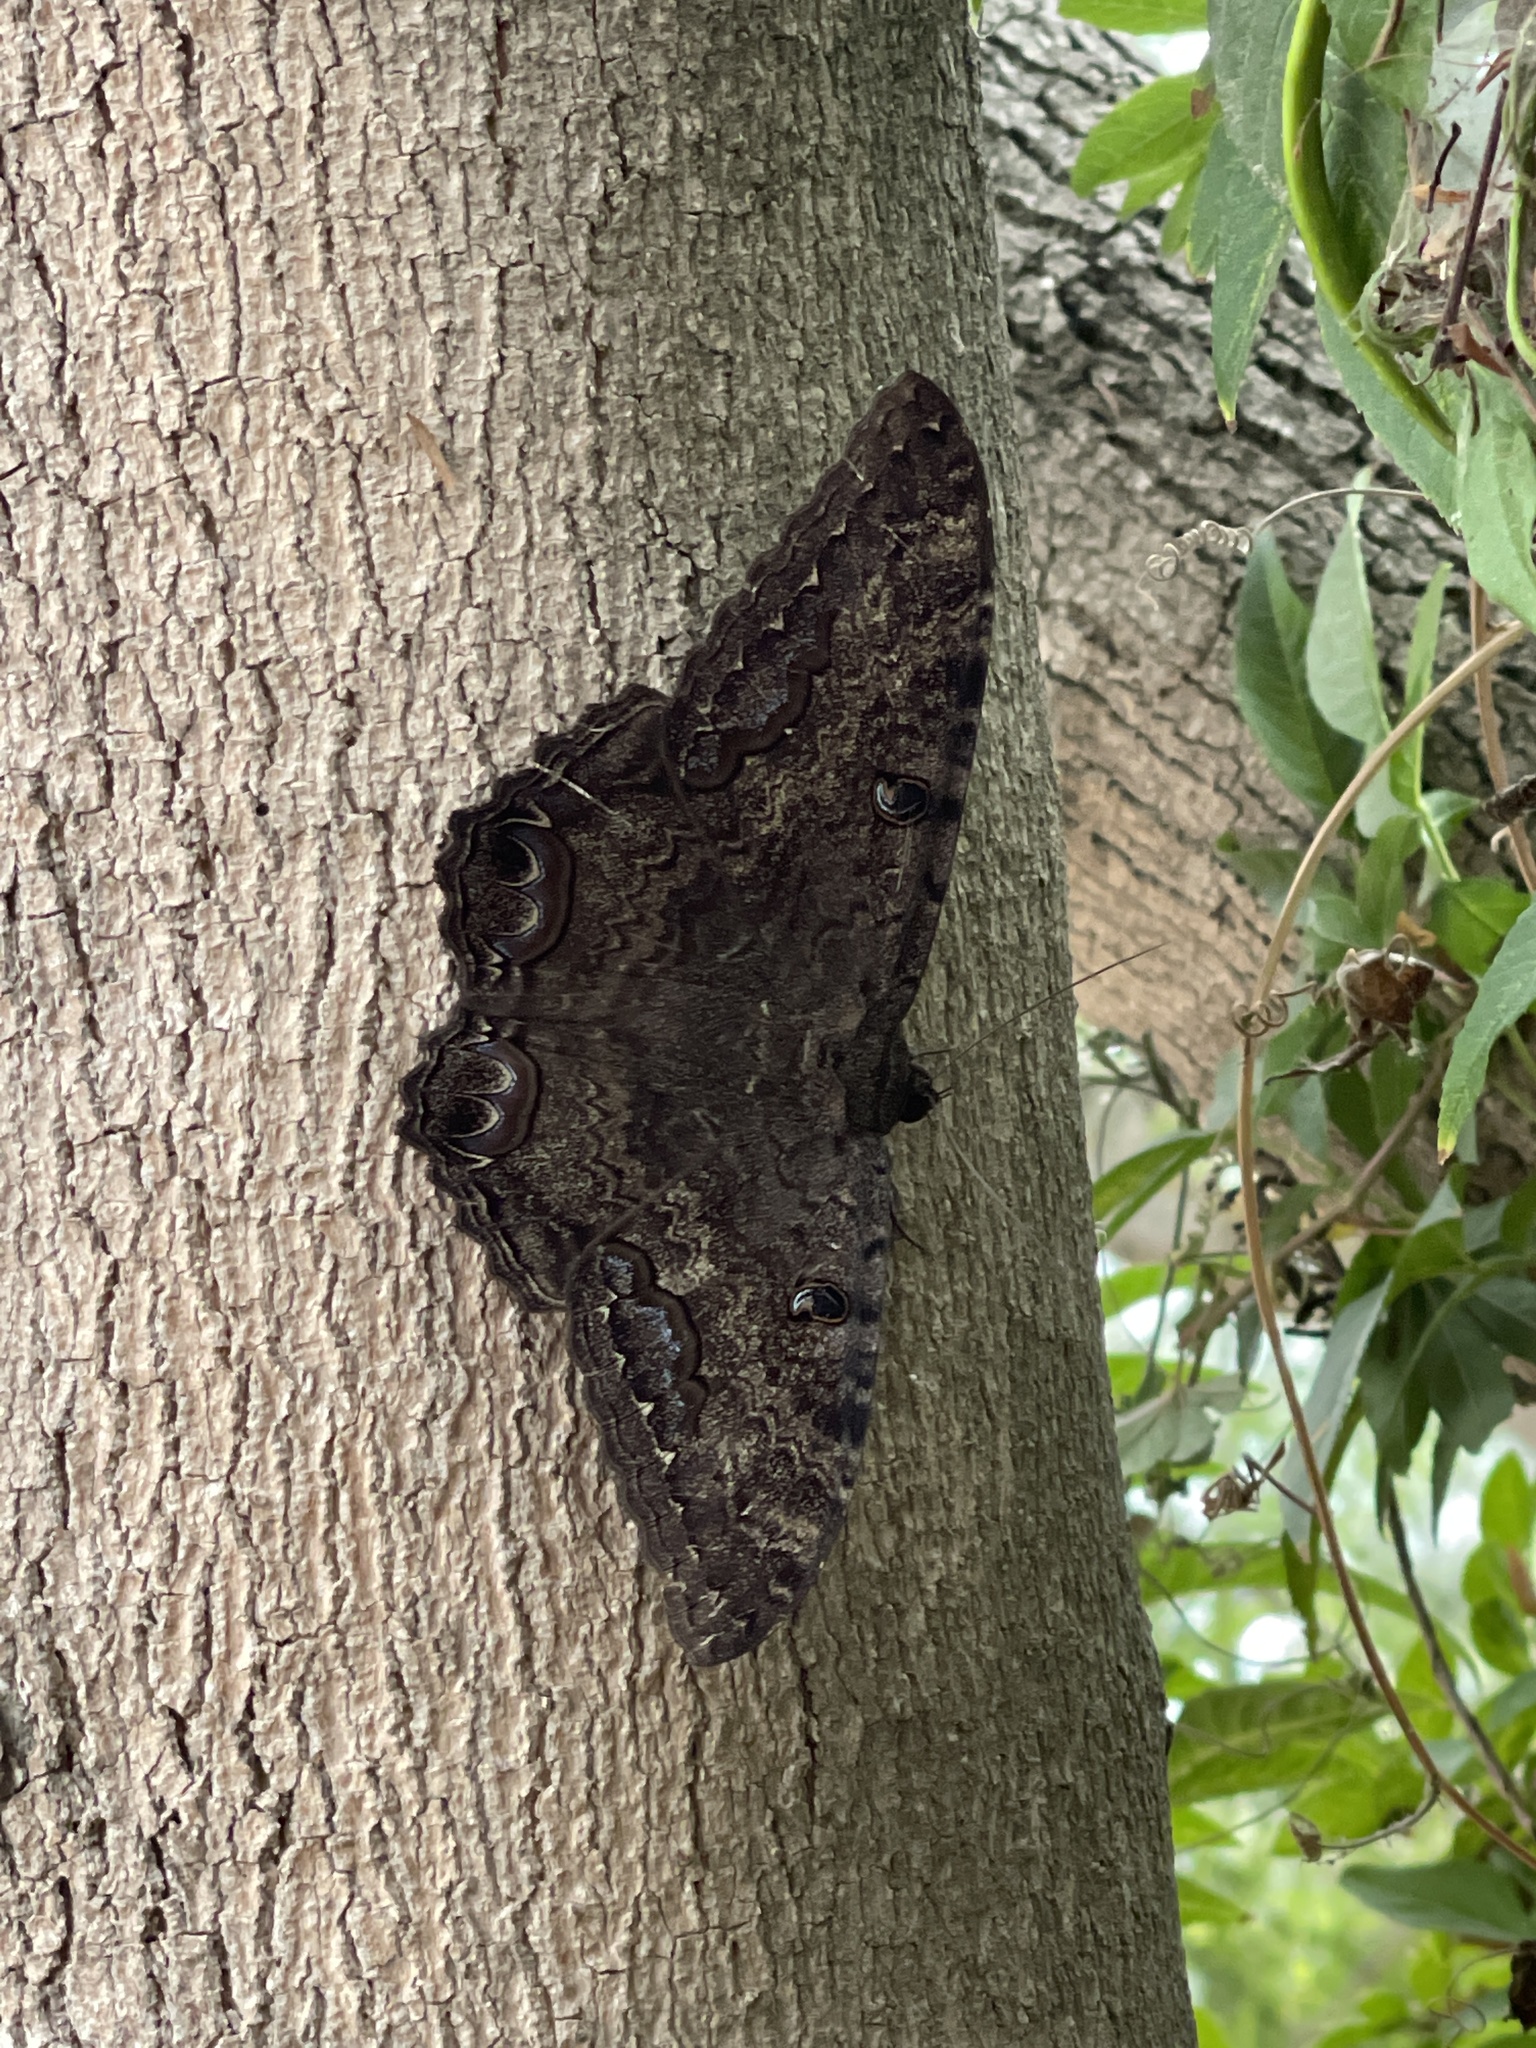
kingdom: Animalia
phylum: Arthropoda
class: Insecta
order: Lepidoptera
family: Erebidae
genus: Ascalapha
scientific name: Ascalapha odorata
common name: Black witch
